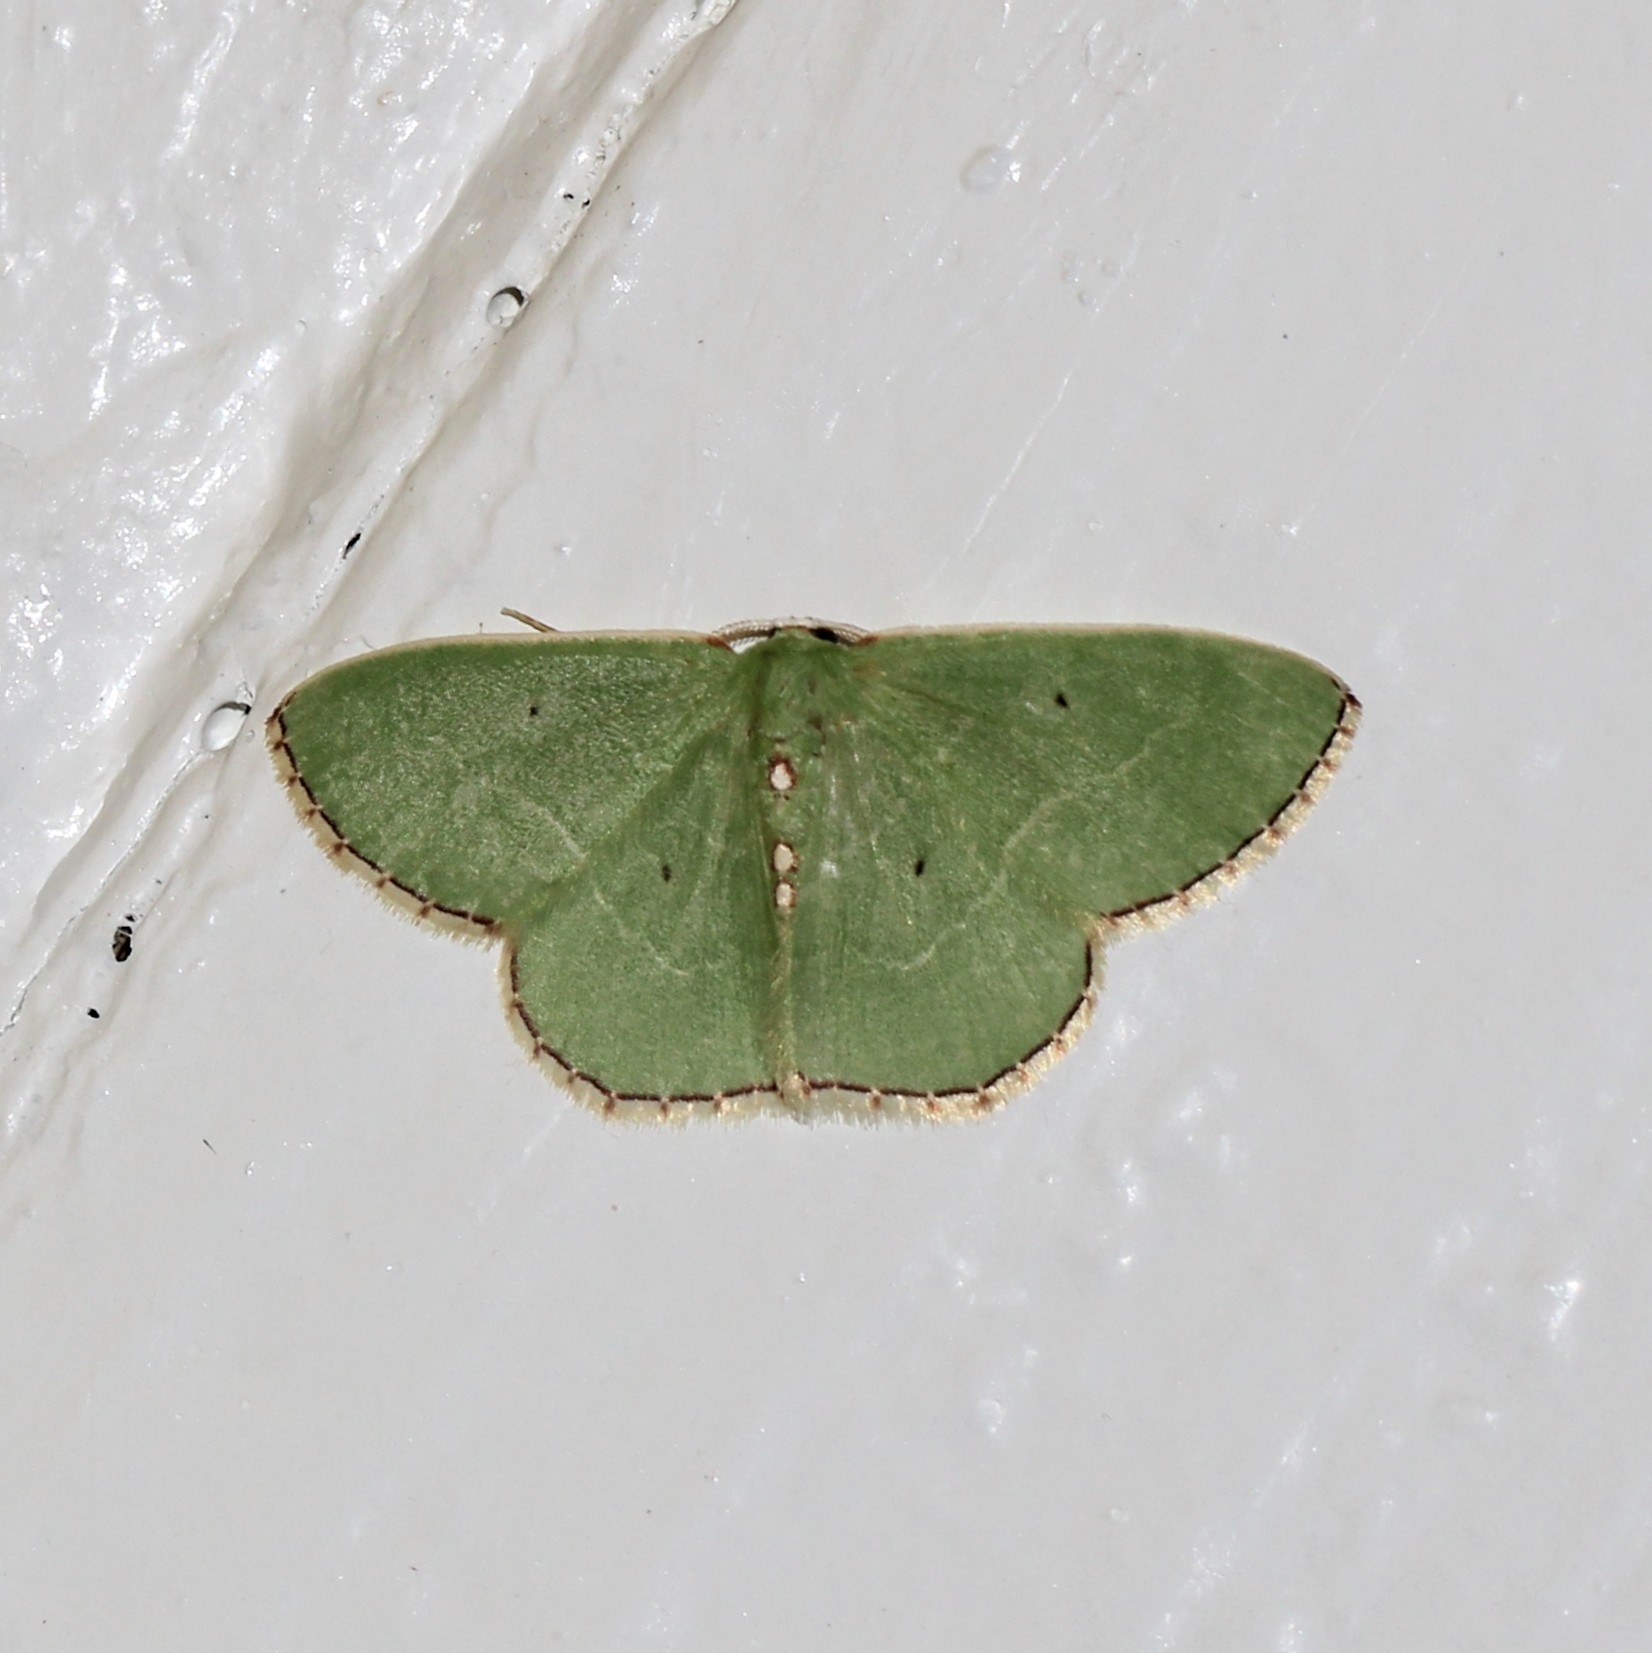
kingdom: Animalia
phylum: Arthropoda
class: Insecta
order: Lepidoptera
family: Geometridae
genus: Nemoria
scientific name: Nemoria lixaria
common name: Red-bordered emerald
